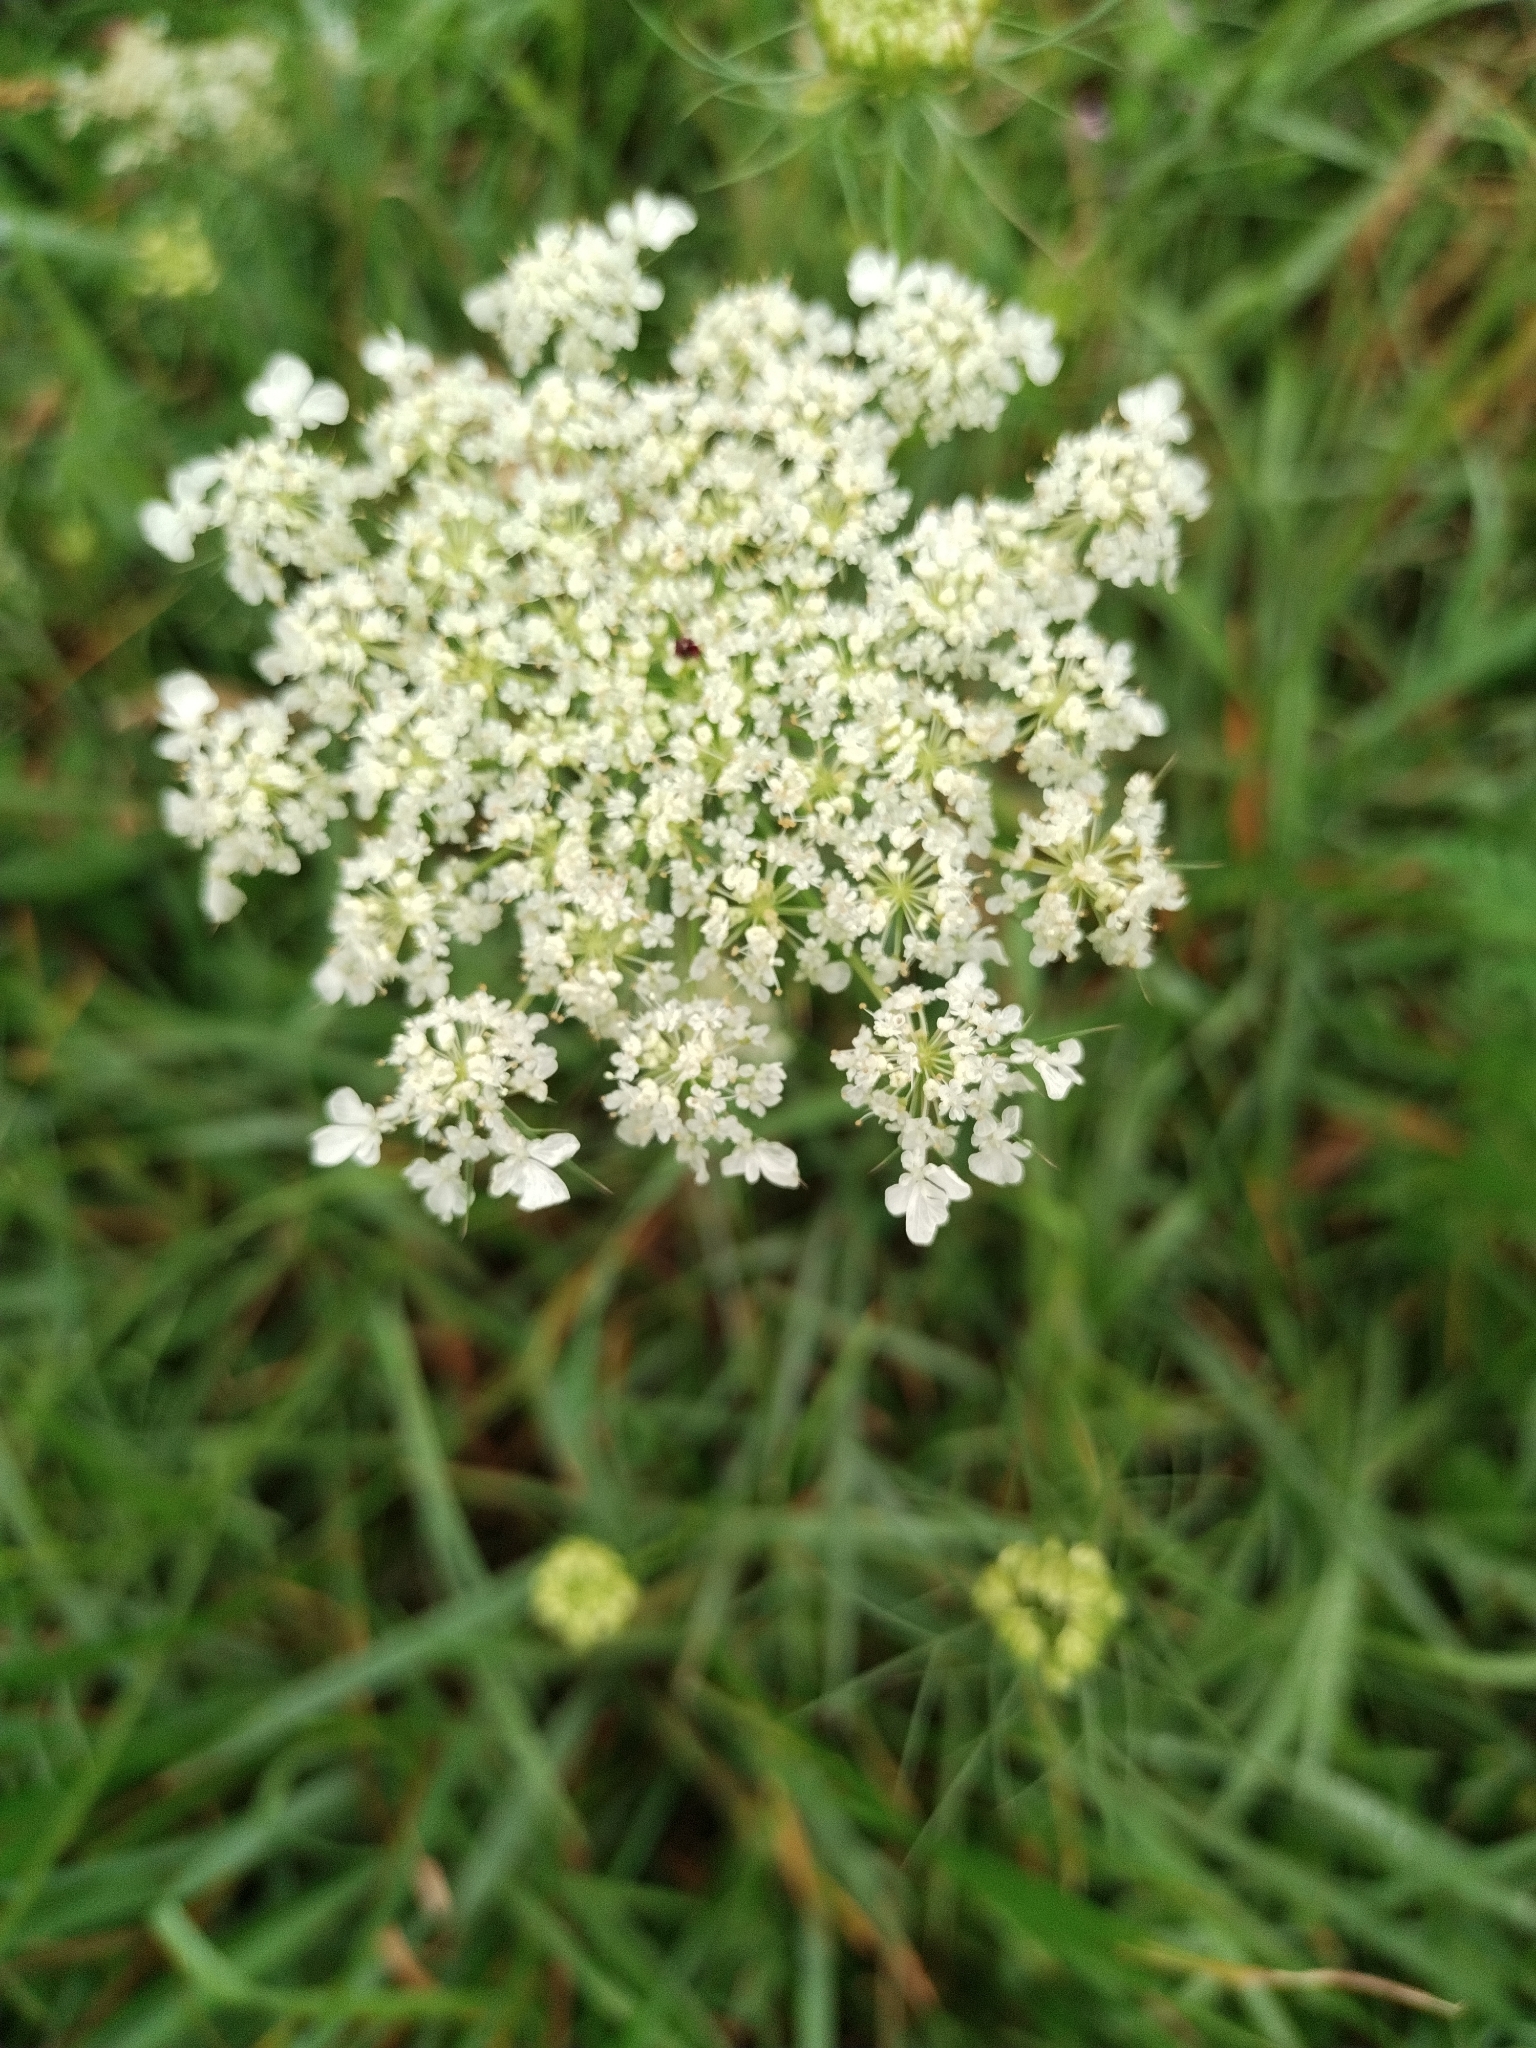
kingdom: Plantae
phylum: Tracheophyta
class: Magnoliopsida
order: Apiales
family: Apiaceae
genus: Daucus
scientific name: Daucus carota
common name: Wild carrot
